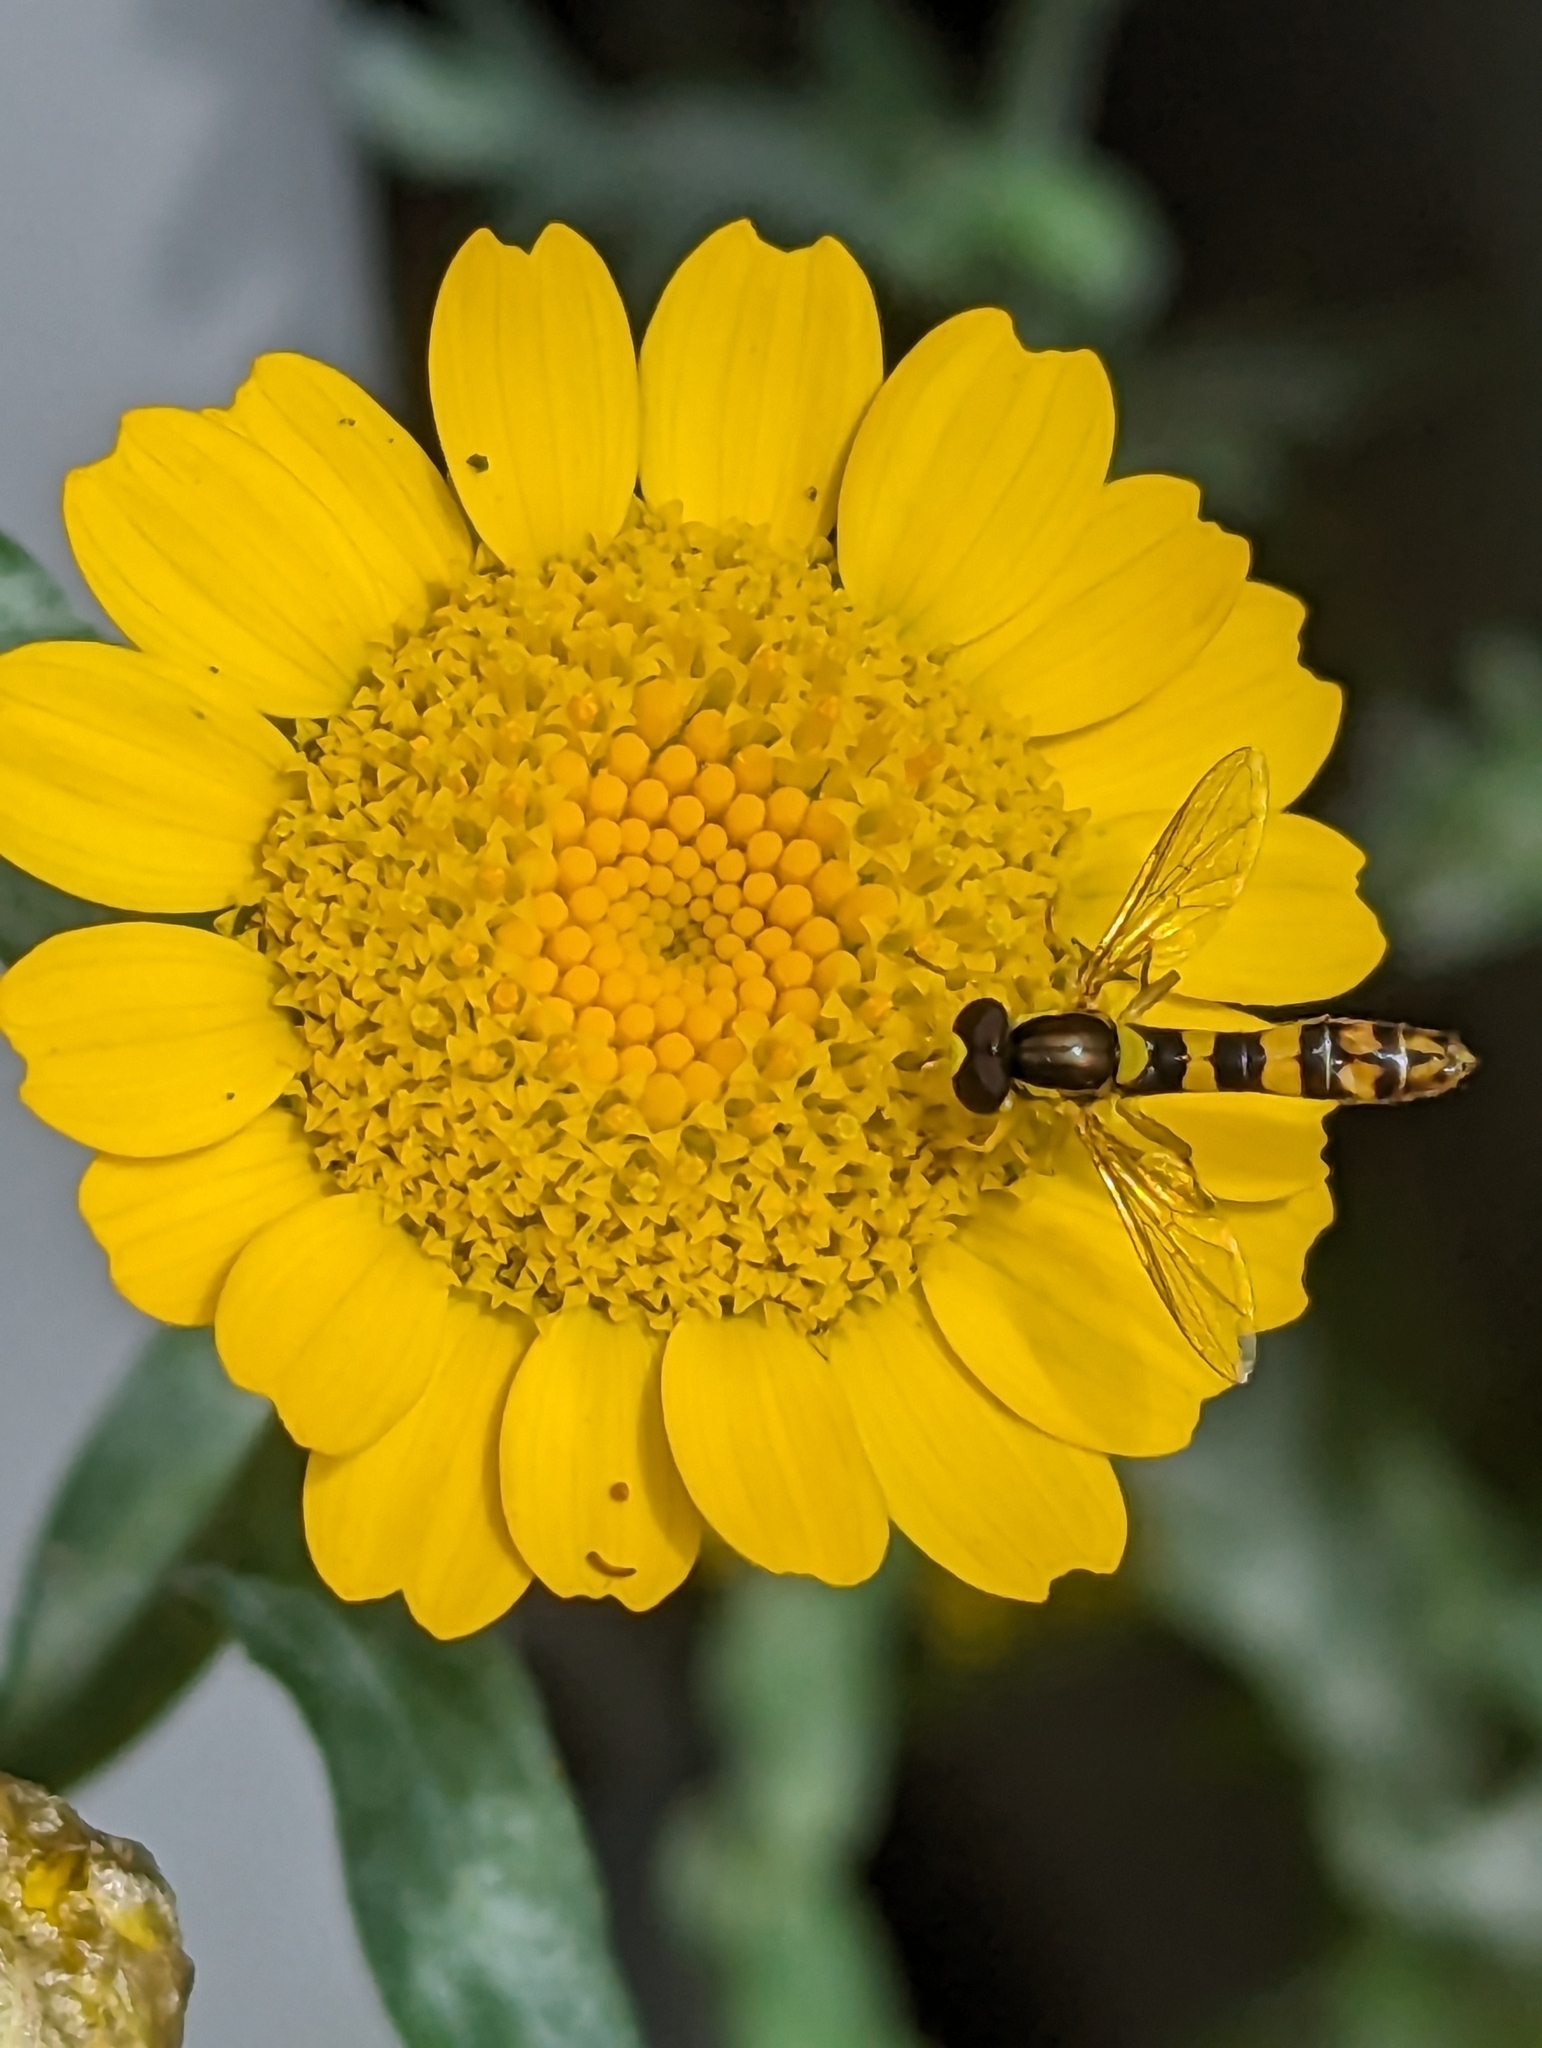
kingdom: Animalia
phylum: Arthropoda
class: Insecta
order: Diptera
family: Syrphidae
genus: Sphaerophoria
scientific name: Sphaerophoria scripta
